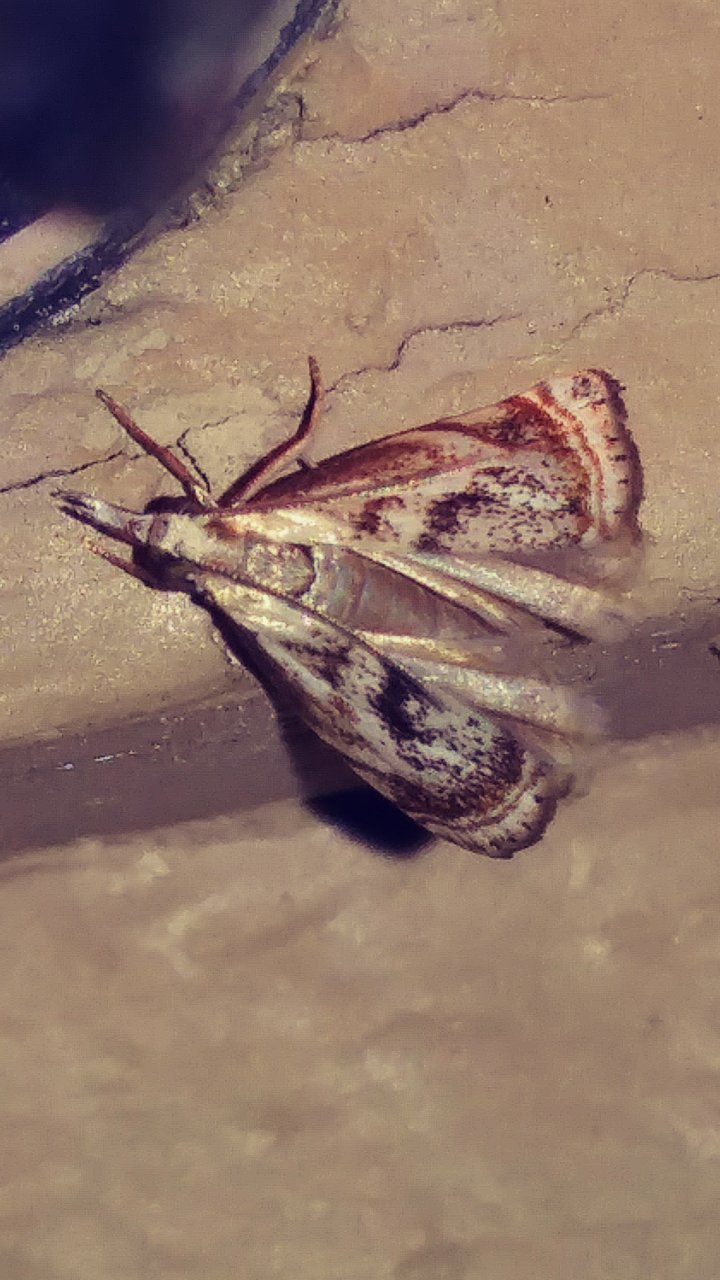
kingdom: Animalia
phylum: Arthropoda
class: Insecta
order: Lepidoptera
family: Crambidae
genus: Microcrambus
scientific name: Microcrambus elegans
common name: Elegant grass-veneer
